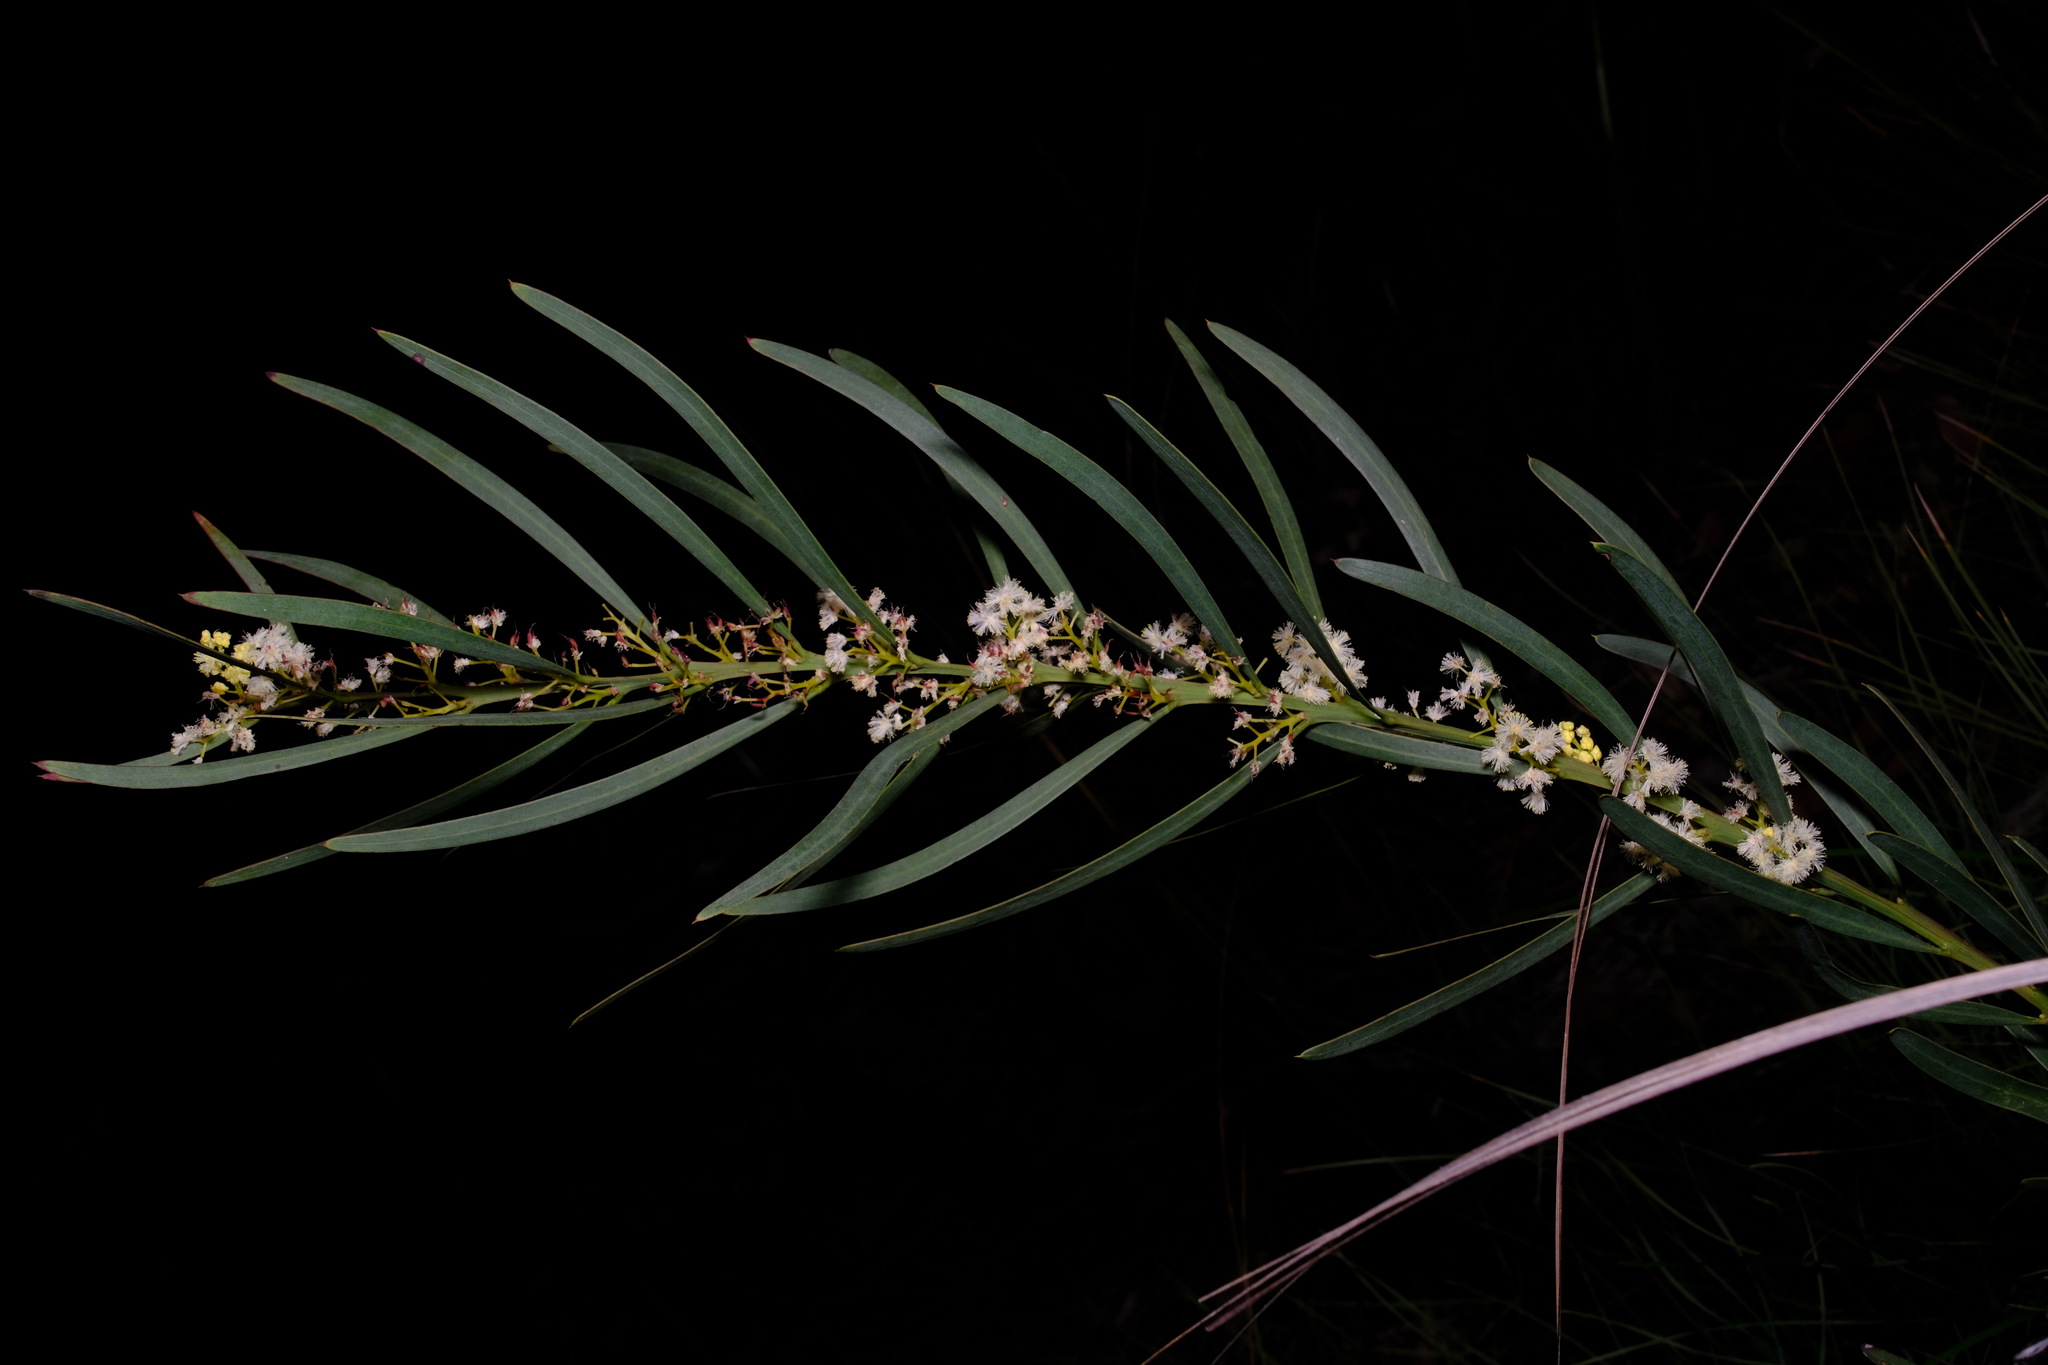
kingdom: Plantae
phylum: Tracheophyta
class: Magnoliopsida
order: Fabales
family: Fabaceae
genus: Acacia
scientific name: Acacia suaveolens
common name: Sweet acacia
